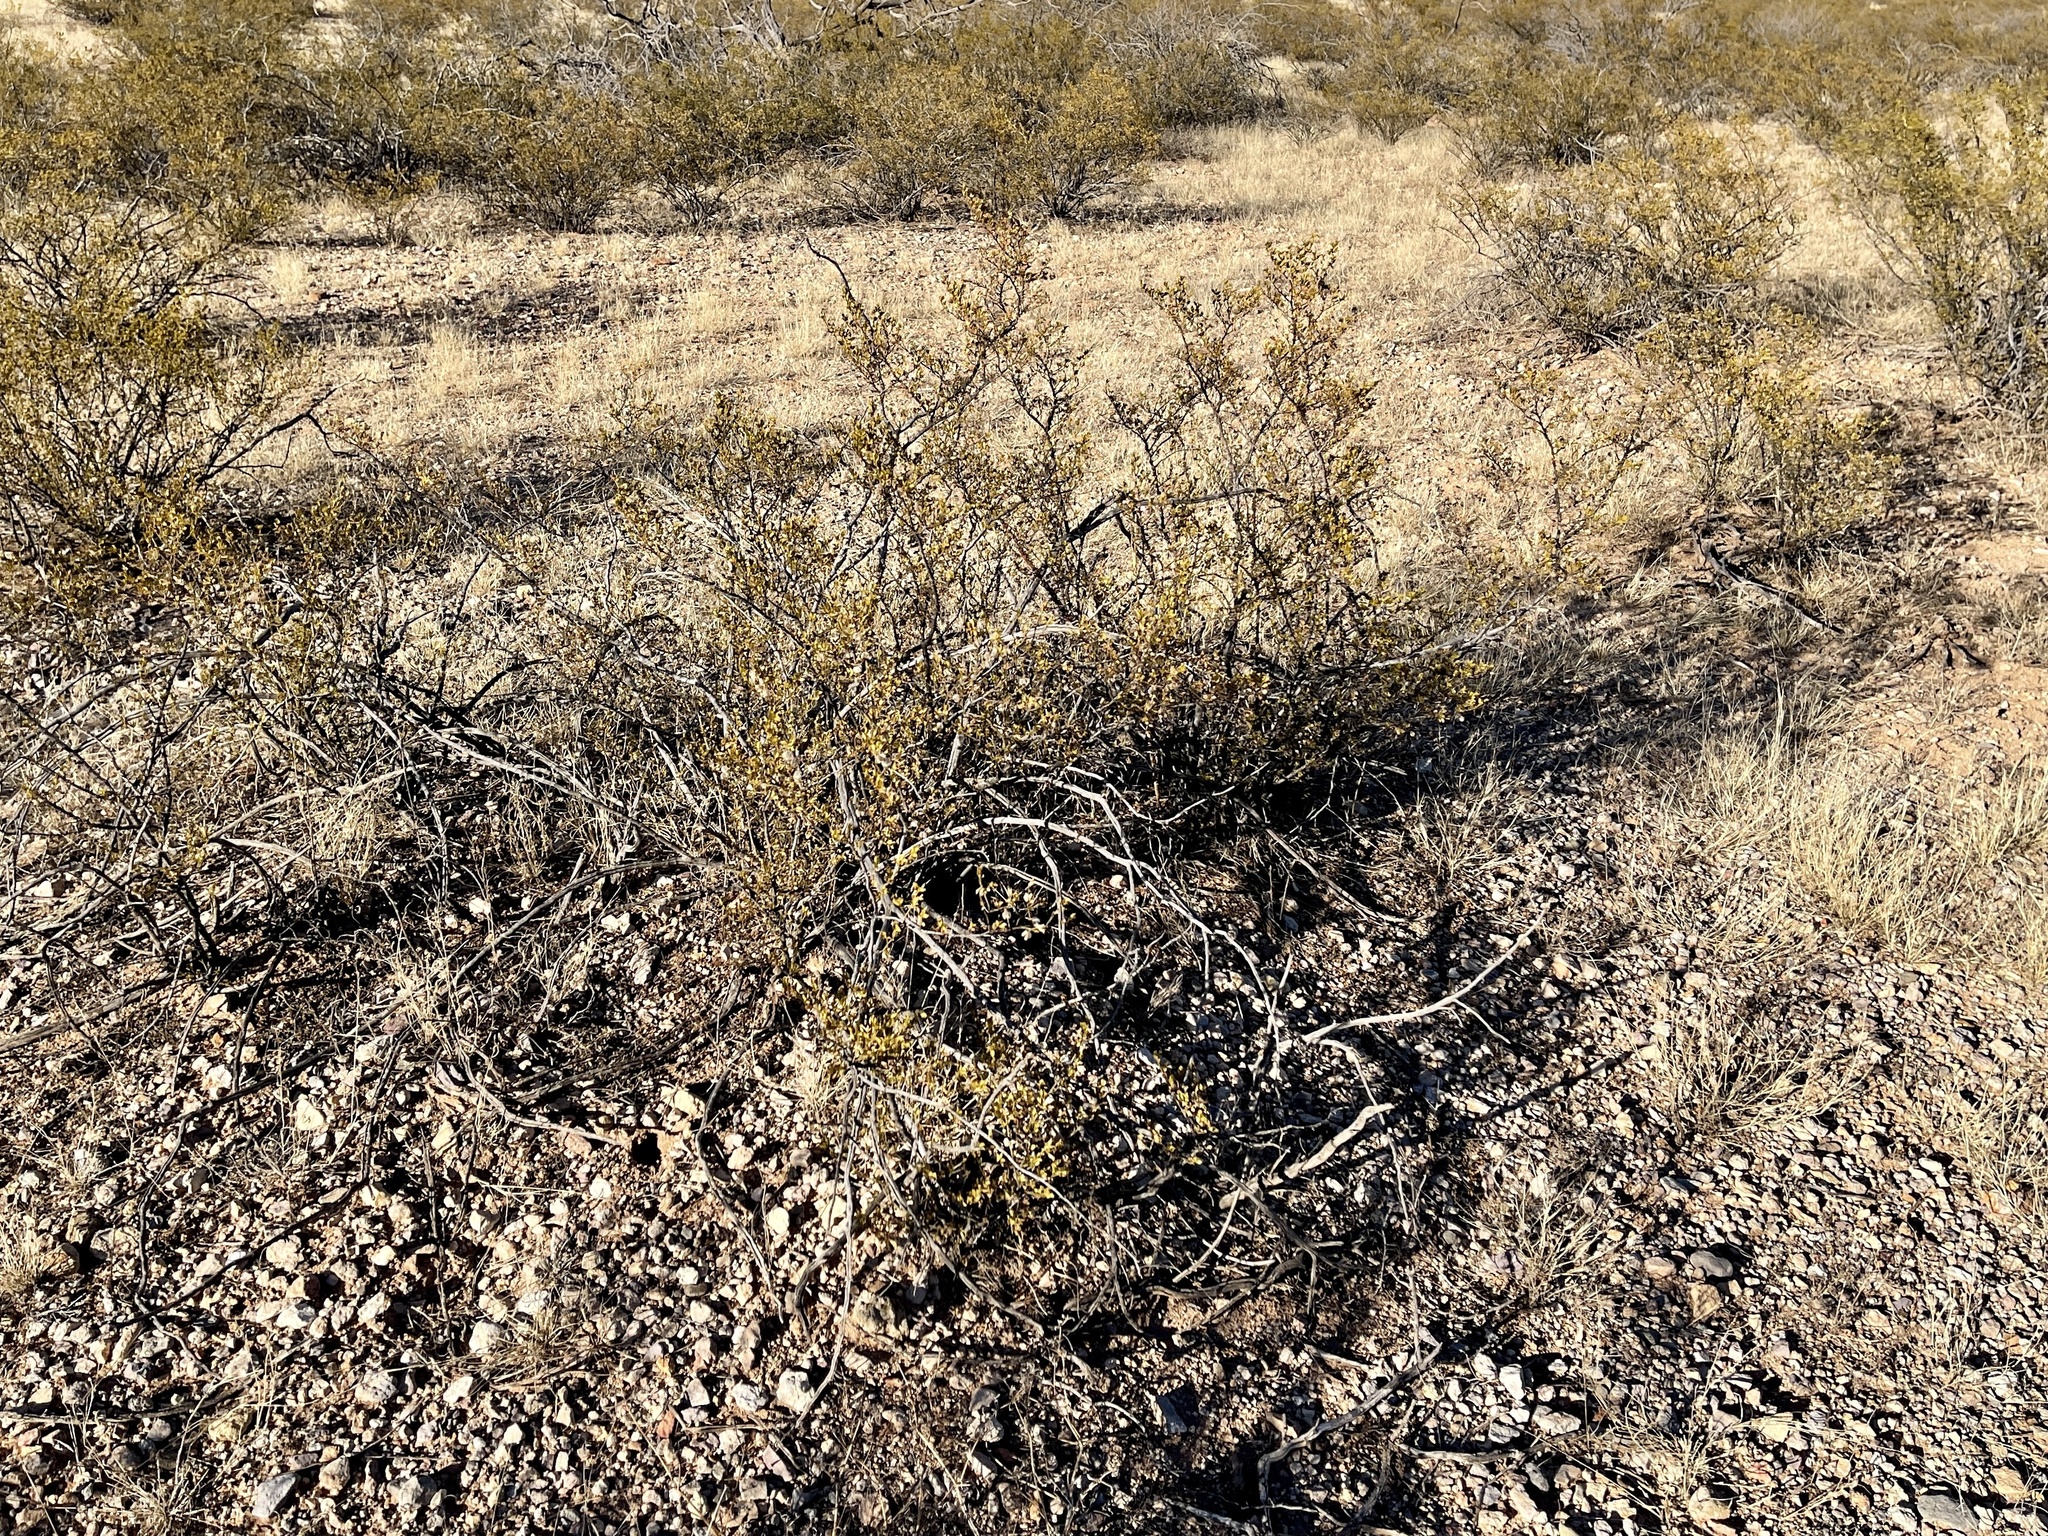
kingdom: Plantae
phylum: Tracheophyta
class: Magnoliopsida
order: Zygophyllales
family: Zygophyllaceae
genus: Larrea
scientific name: Larrea tridentata
